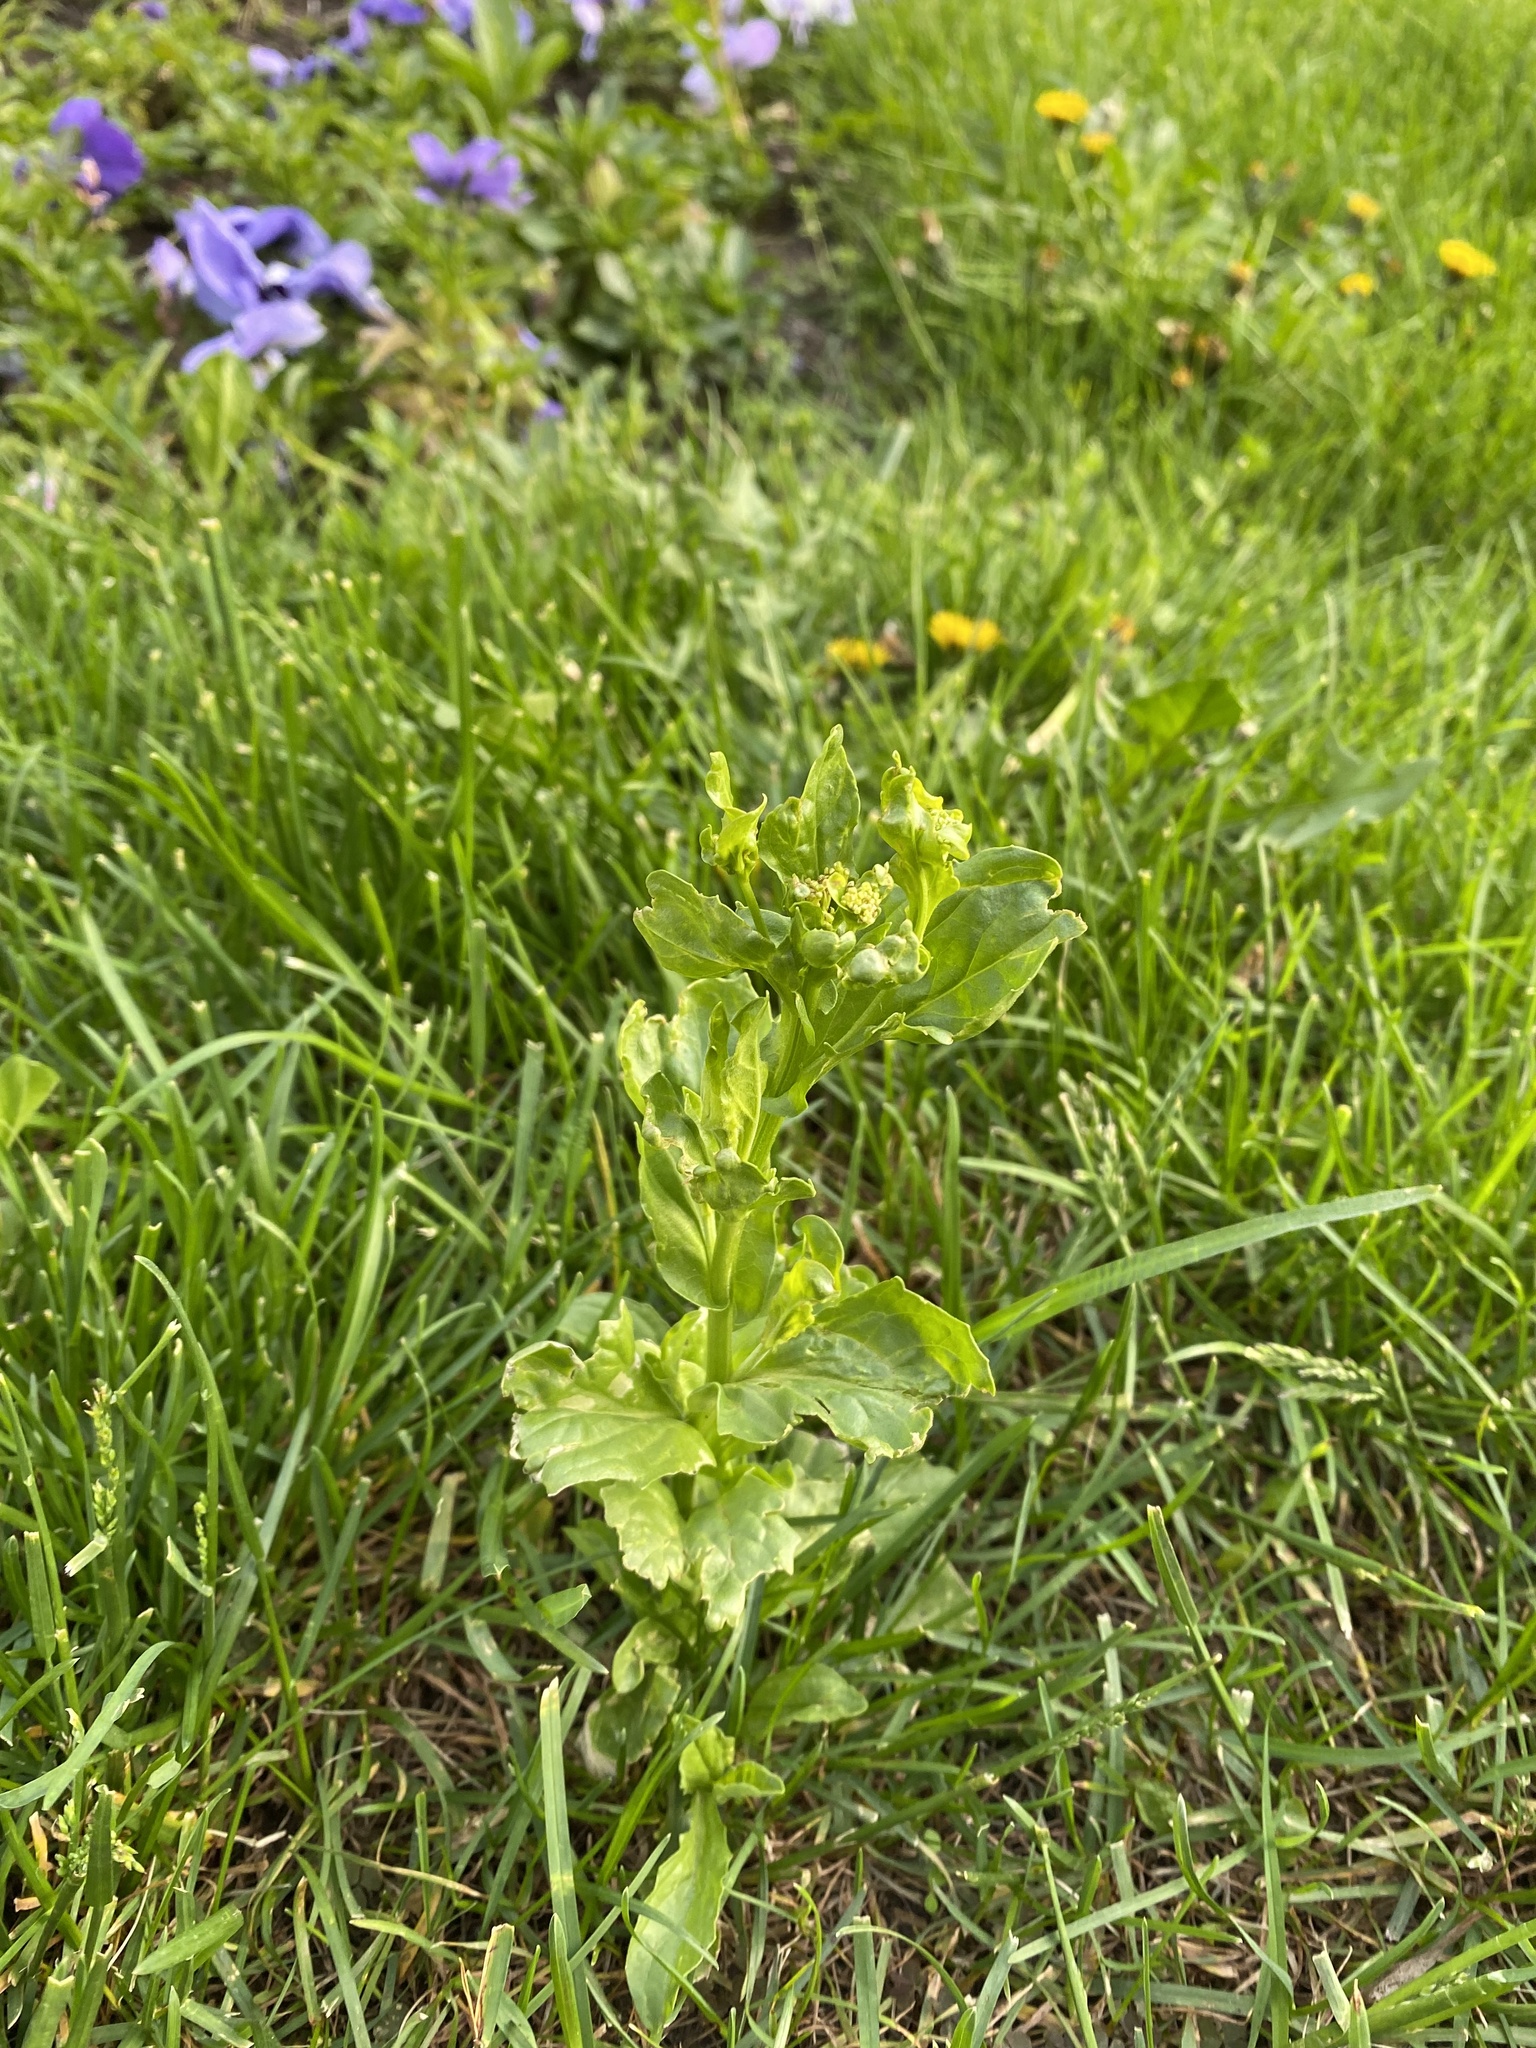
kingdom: Plantae
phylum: Tracheophyta
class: Magnoliopsida
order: Brassicales
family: Brassicaceae
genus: Lepidium
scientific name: Lepidium draba
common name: Hoary cress
